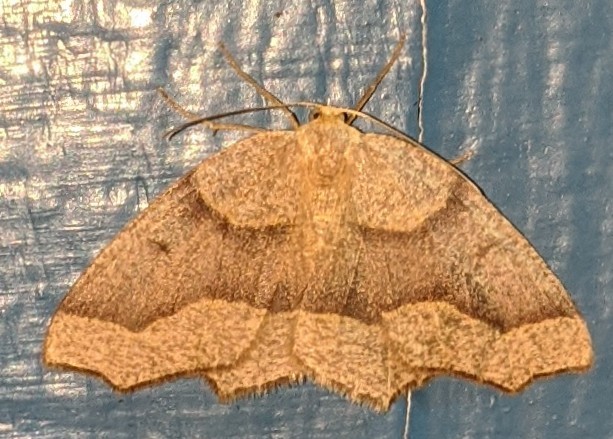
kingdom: Animalia
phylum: Arthropoda
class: Insecta
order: Lepidoptera
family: Geometridae
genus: Lambdina
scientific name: Lambdina fiscellaria
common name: Hemlock looper
